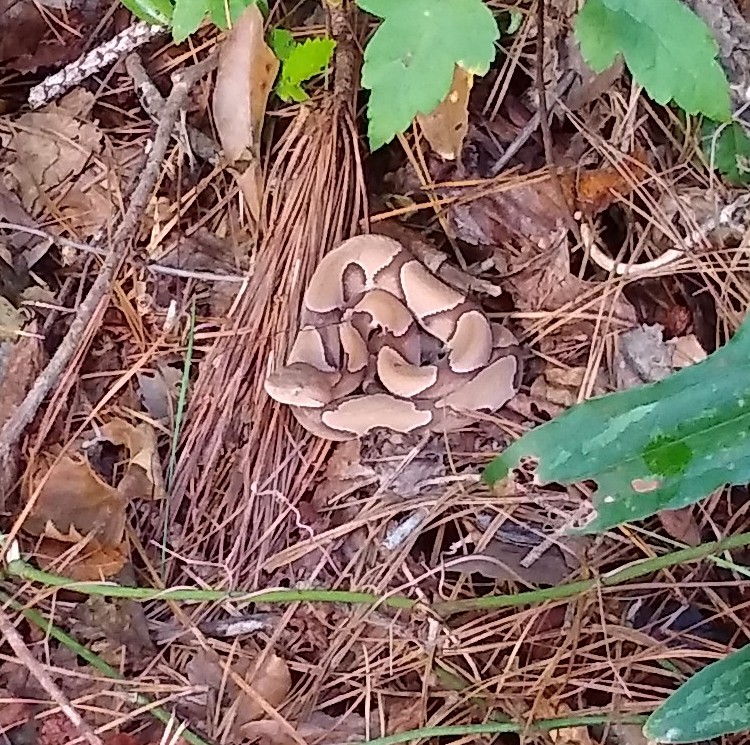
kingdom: Animalia
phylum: Chordata
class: Squamata
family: Viperidae
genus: Agkistrodon
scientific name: Agkistrodon contortrix
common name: Northern copperhead
